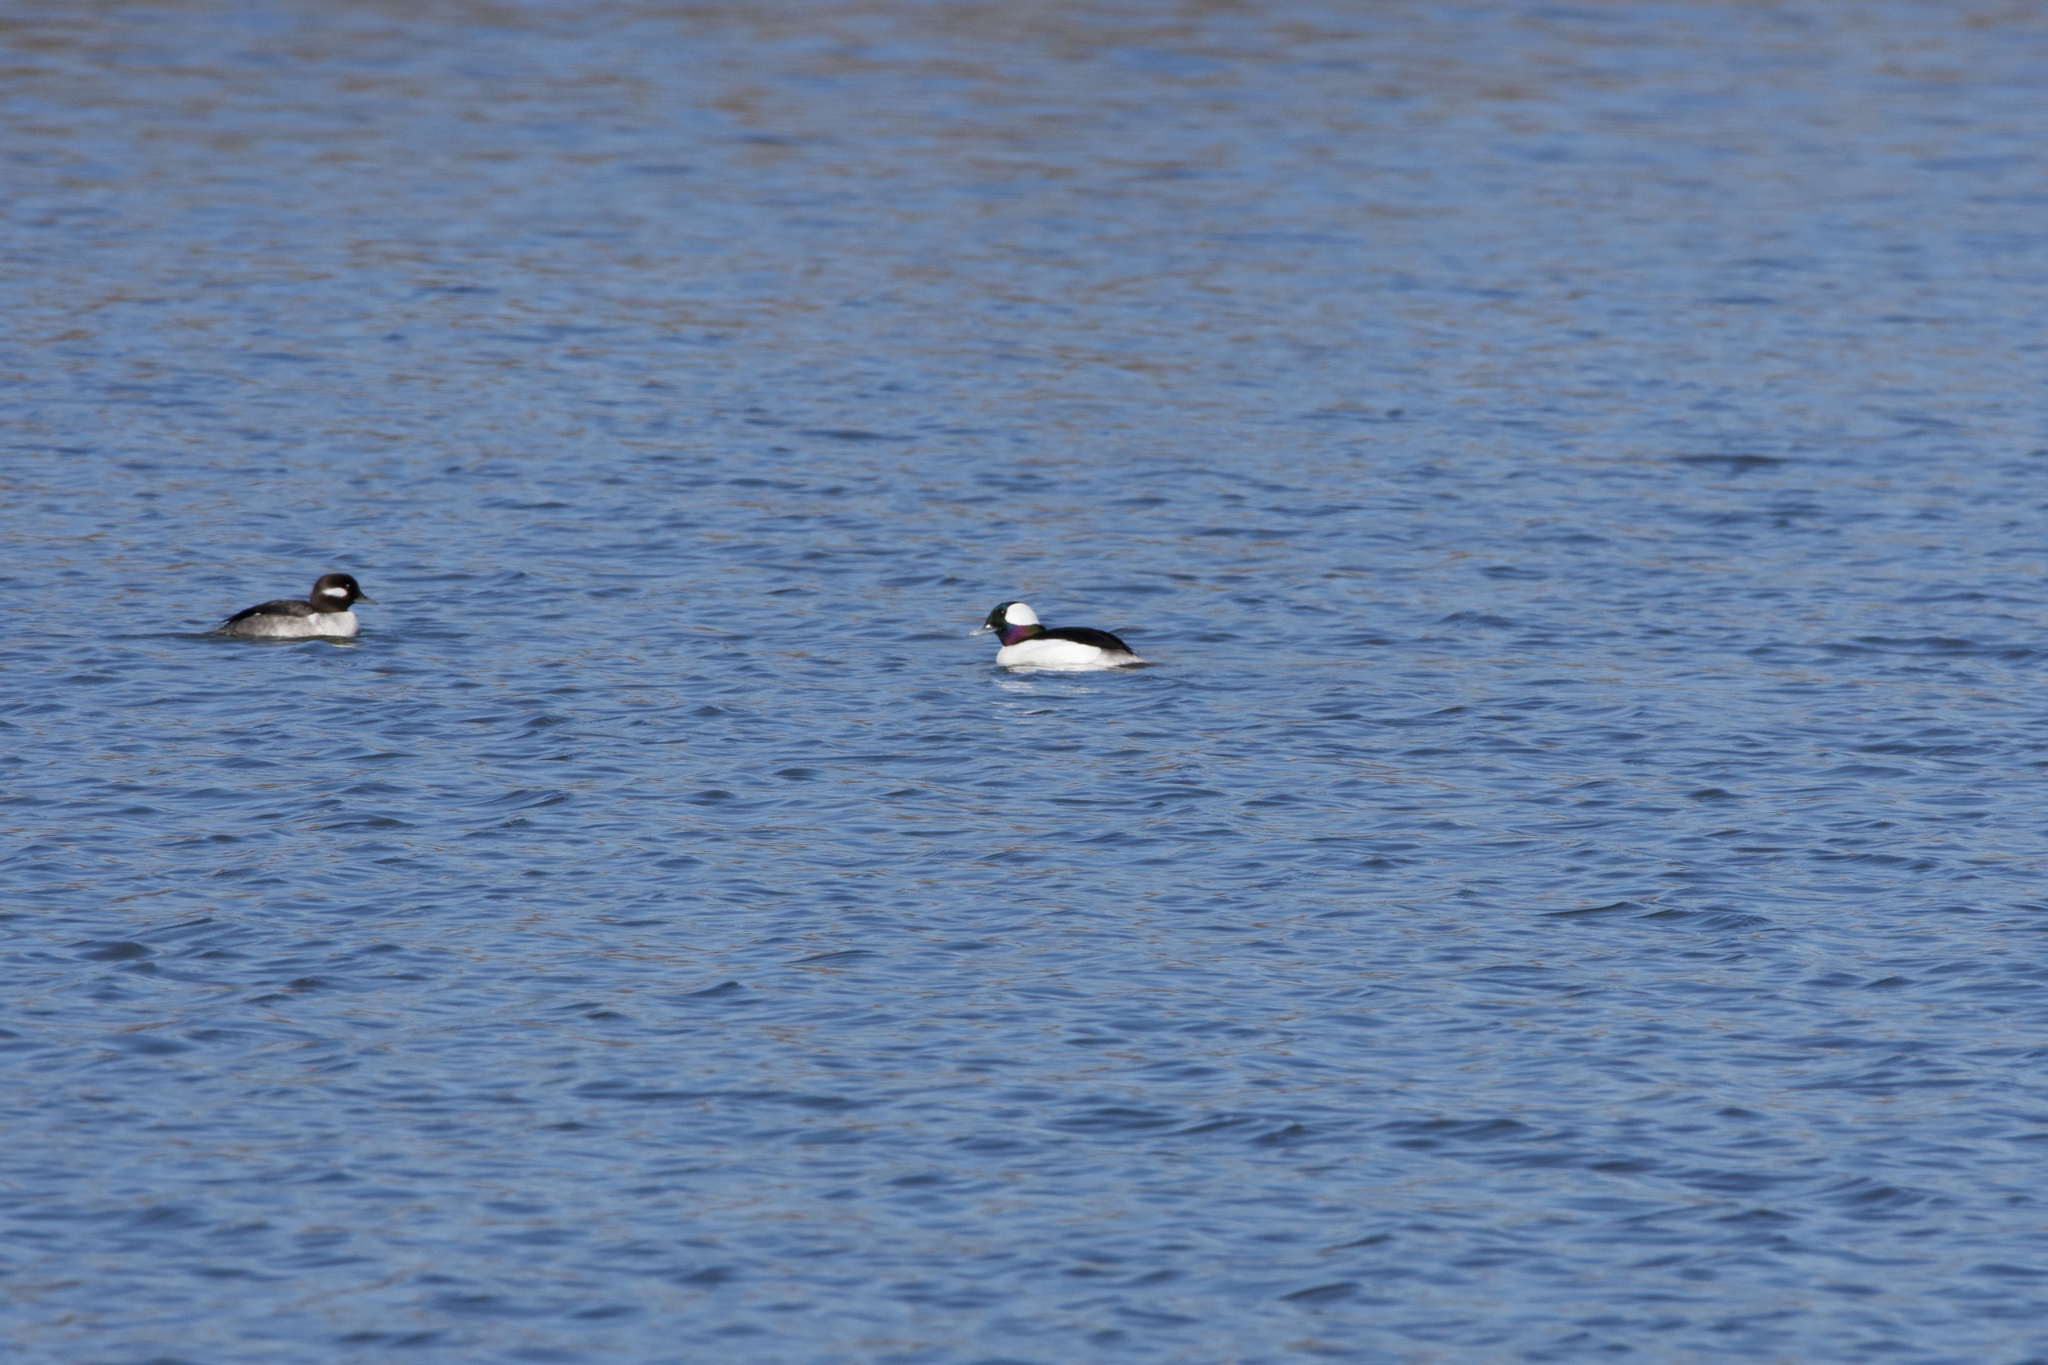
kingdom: Animalia
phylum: Chordata
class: Aves
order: Anseriformes
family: Anatidae
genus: Bucephala
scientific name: Bucephala albeola
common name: Bufflehead
